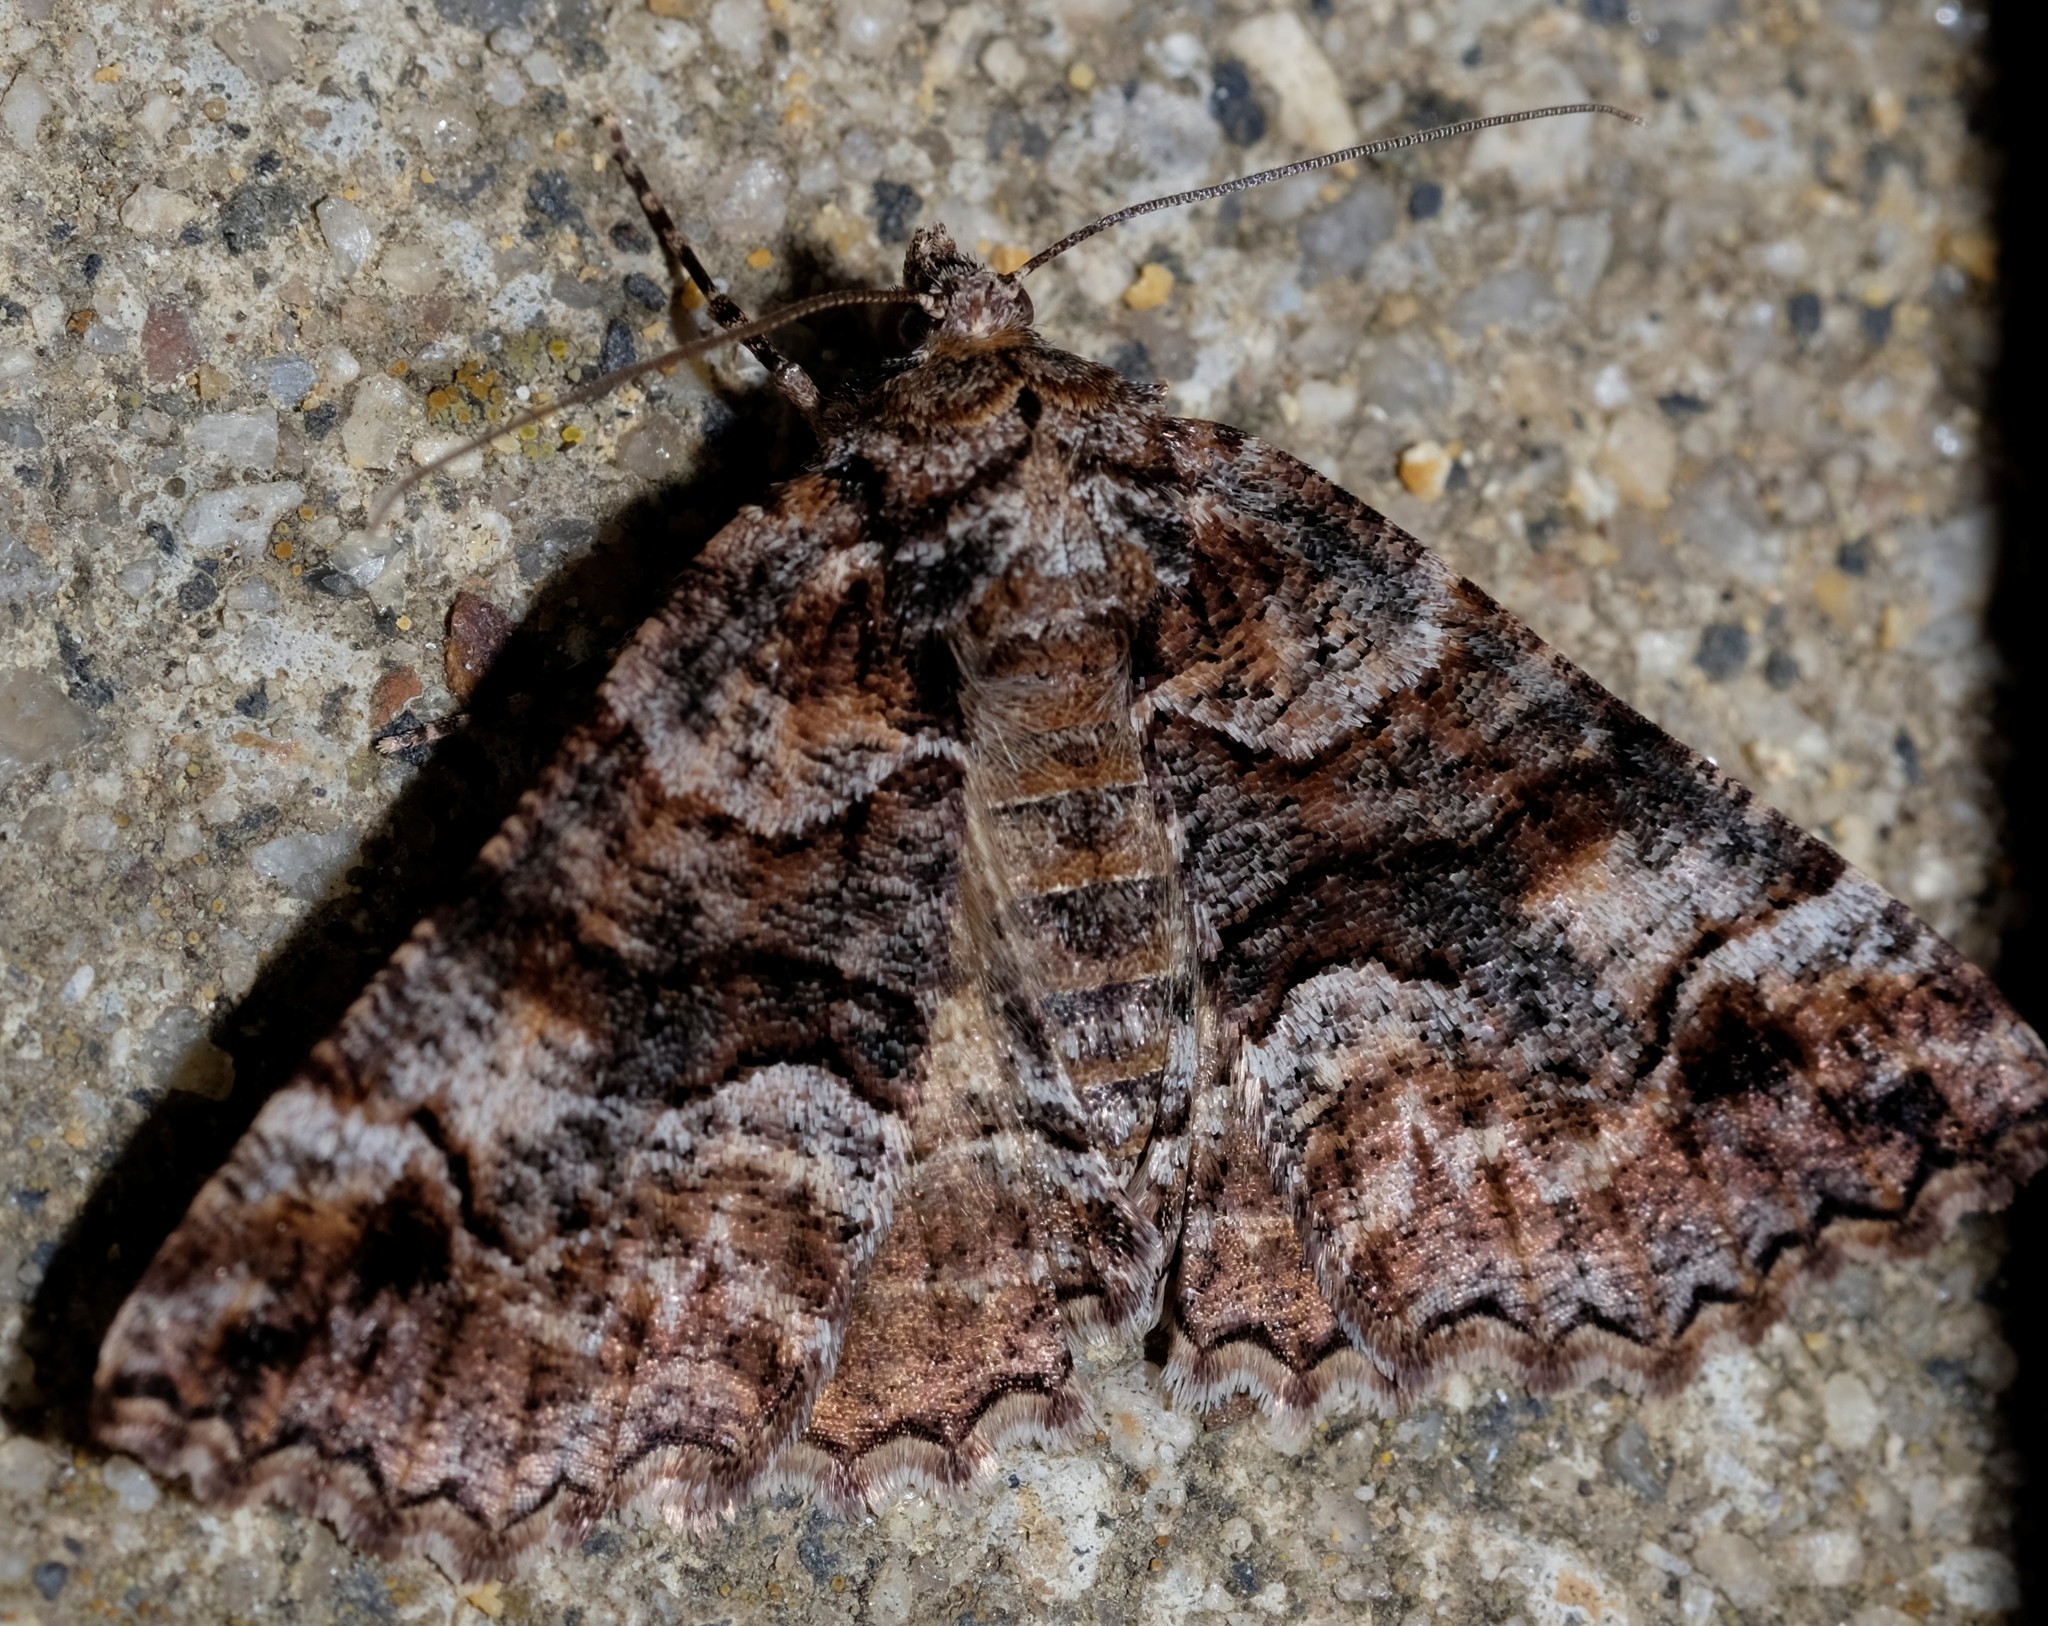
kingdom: Animalia
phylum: Arthropoda
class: Insecta
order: Lepidoptera
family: Geometridae
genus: Gastrina
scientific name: Gastrina cristaria
